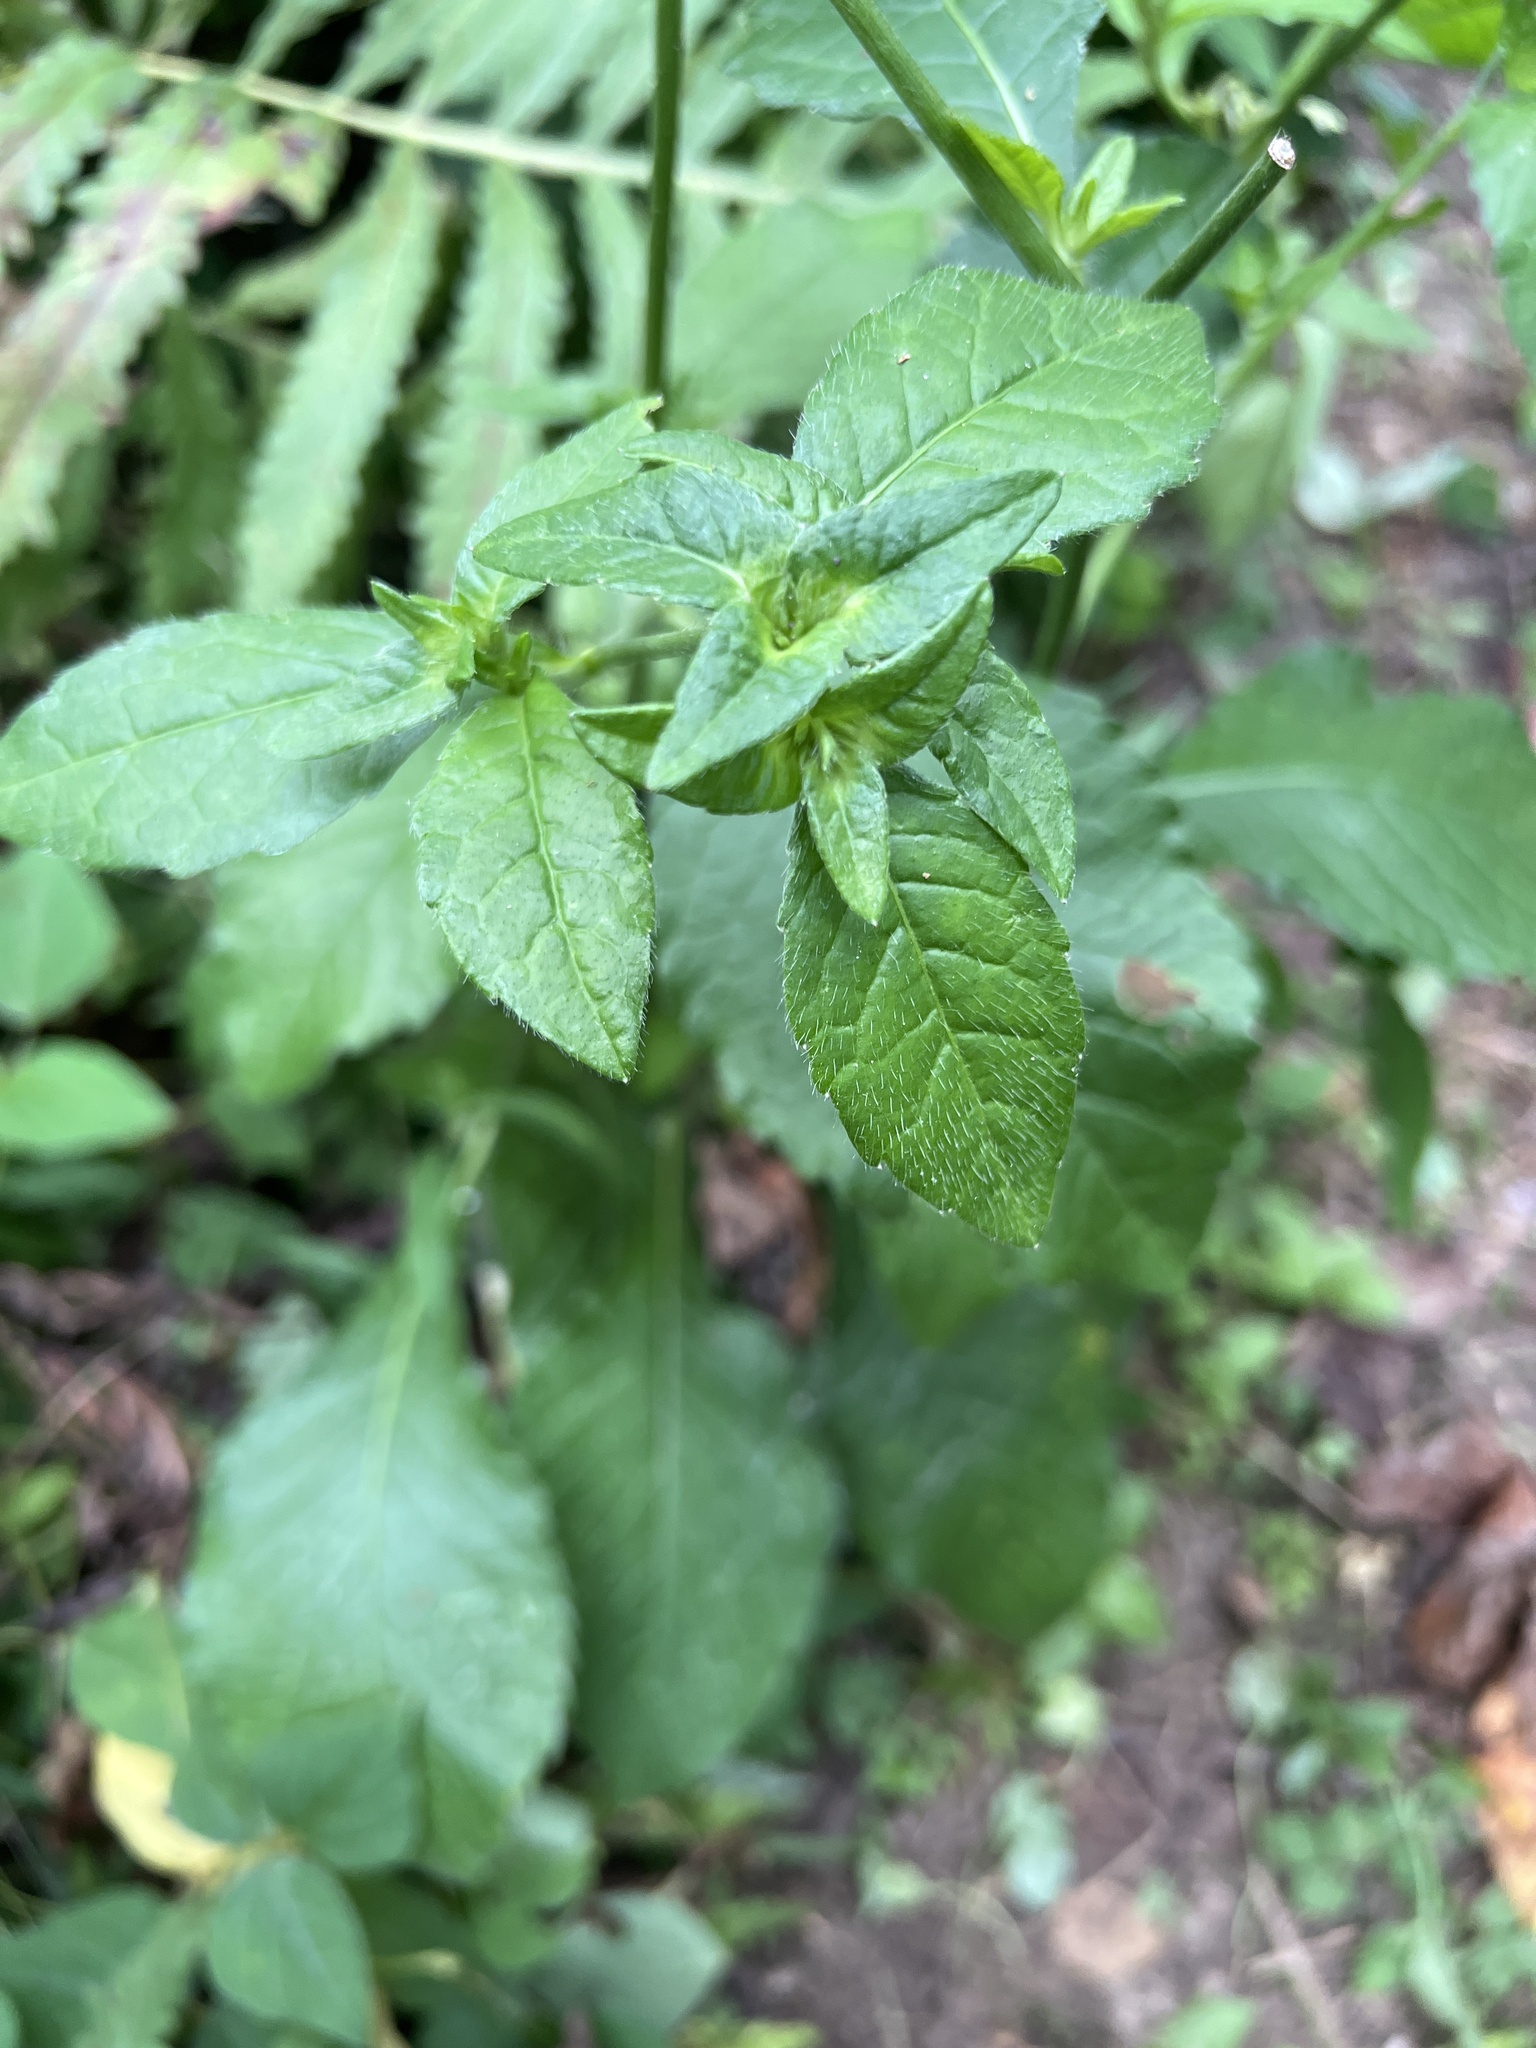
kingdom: Plantae
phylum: Tracheophyta
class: Magnoliopsida
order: Asterales
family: Asteraceae
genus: Elephantopus
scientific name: Elephantopus carolinianus
